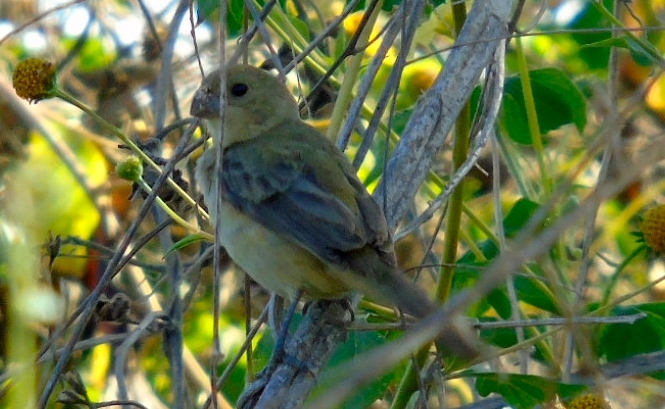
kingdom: Animalia
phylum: Chordata
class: Aves
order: Passeriformes
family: Thraupidae
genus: Sporophila
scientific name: Sporophila torqueola
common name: White-collared seedeater
